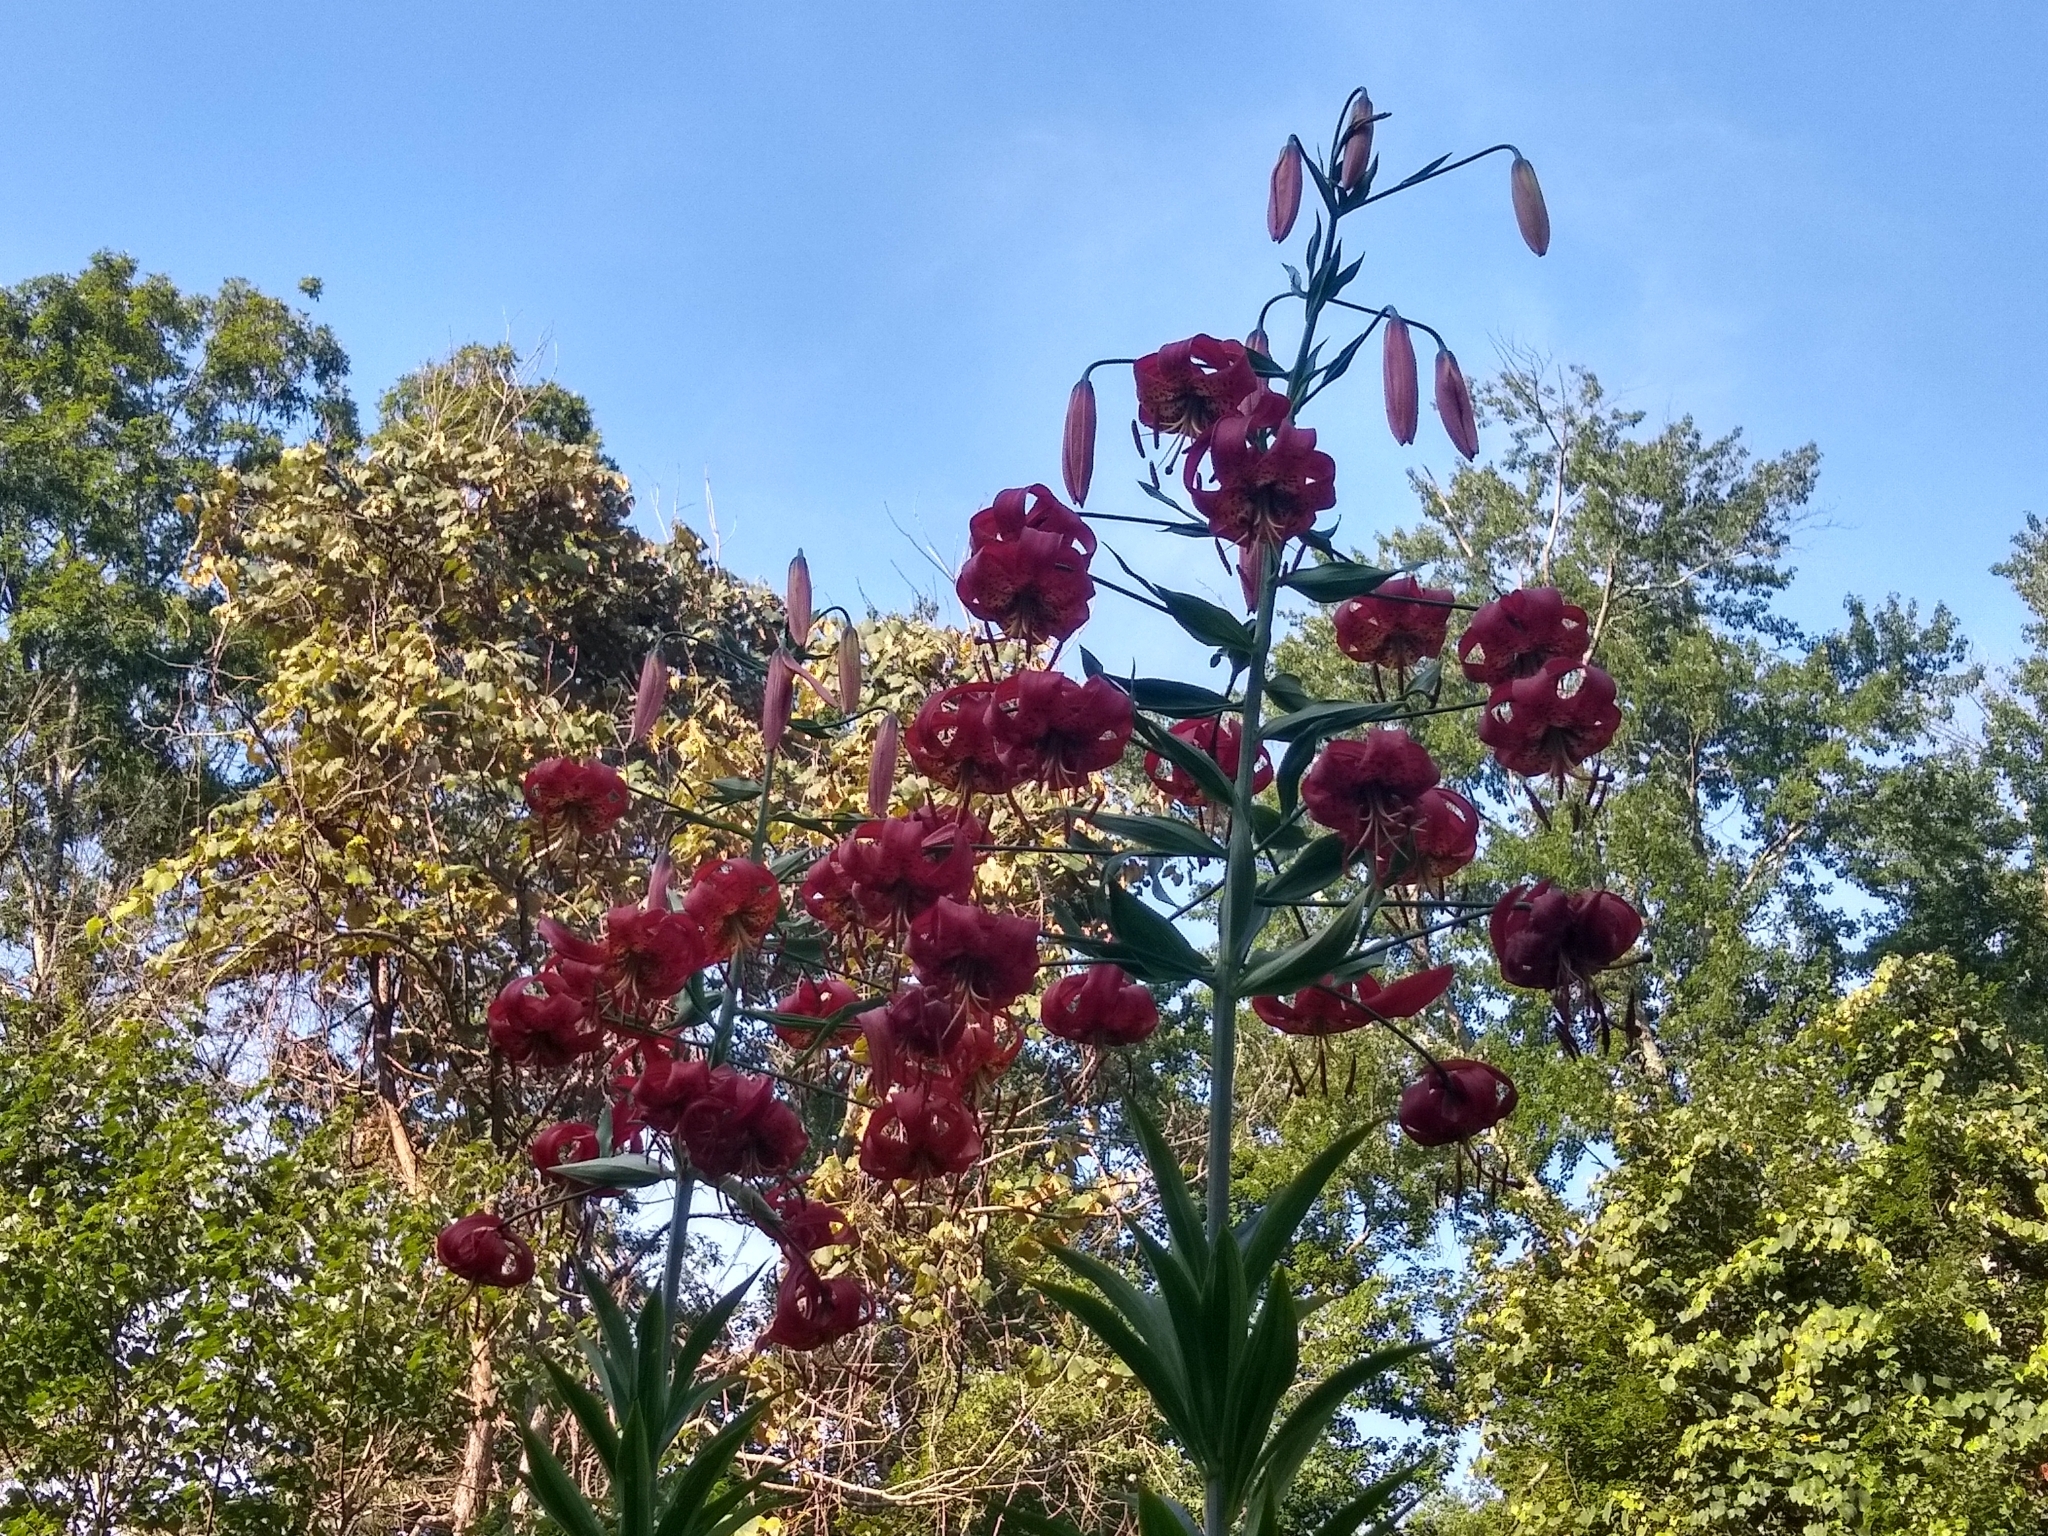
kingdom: Plantae
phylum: Tracheophyta
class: Liliopsida
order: Liliales
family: Liliaceae
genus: Lilium
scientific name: Lilium superbum
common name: American turk's-cap lily
